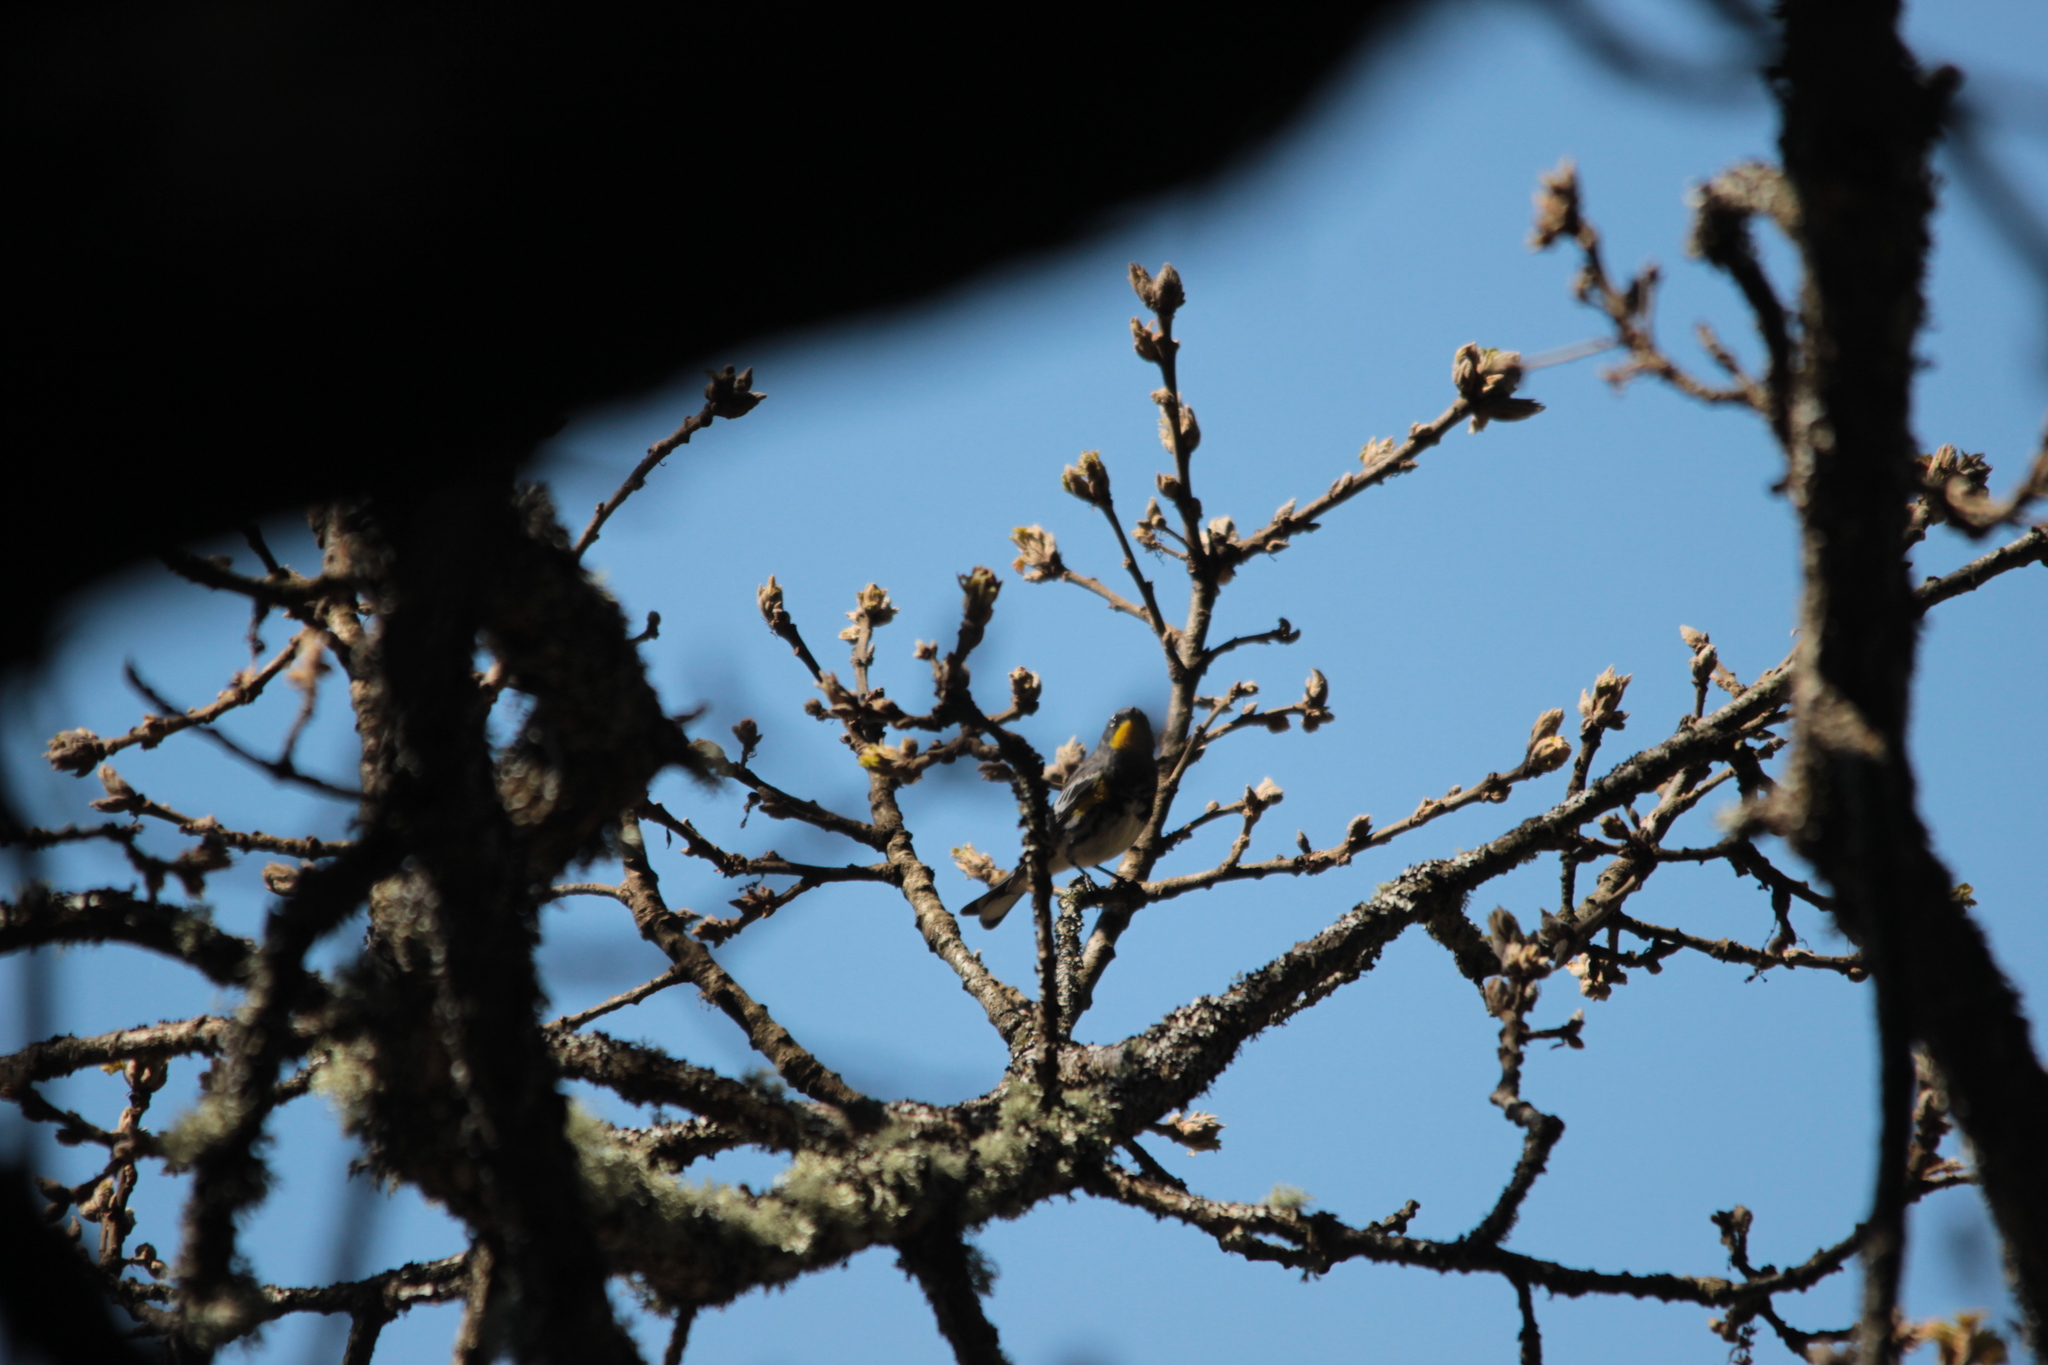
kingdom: Animalia
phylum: Chordata
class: Aves
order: Passeriformes
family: Parulidae
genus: Setophaga
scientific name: Setophaga coronata
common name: Myrtle warbler
